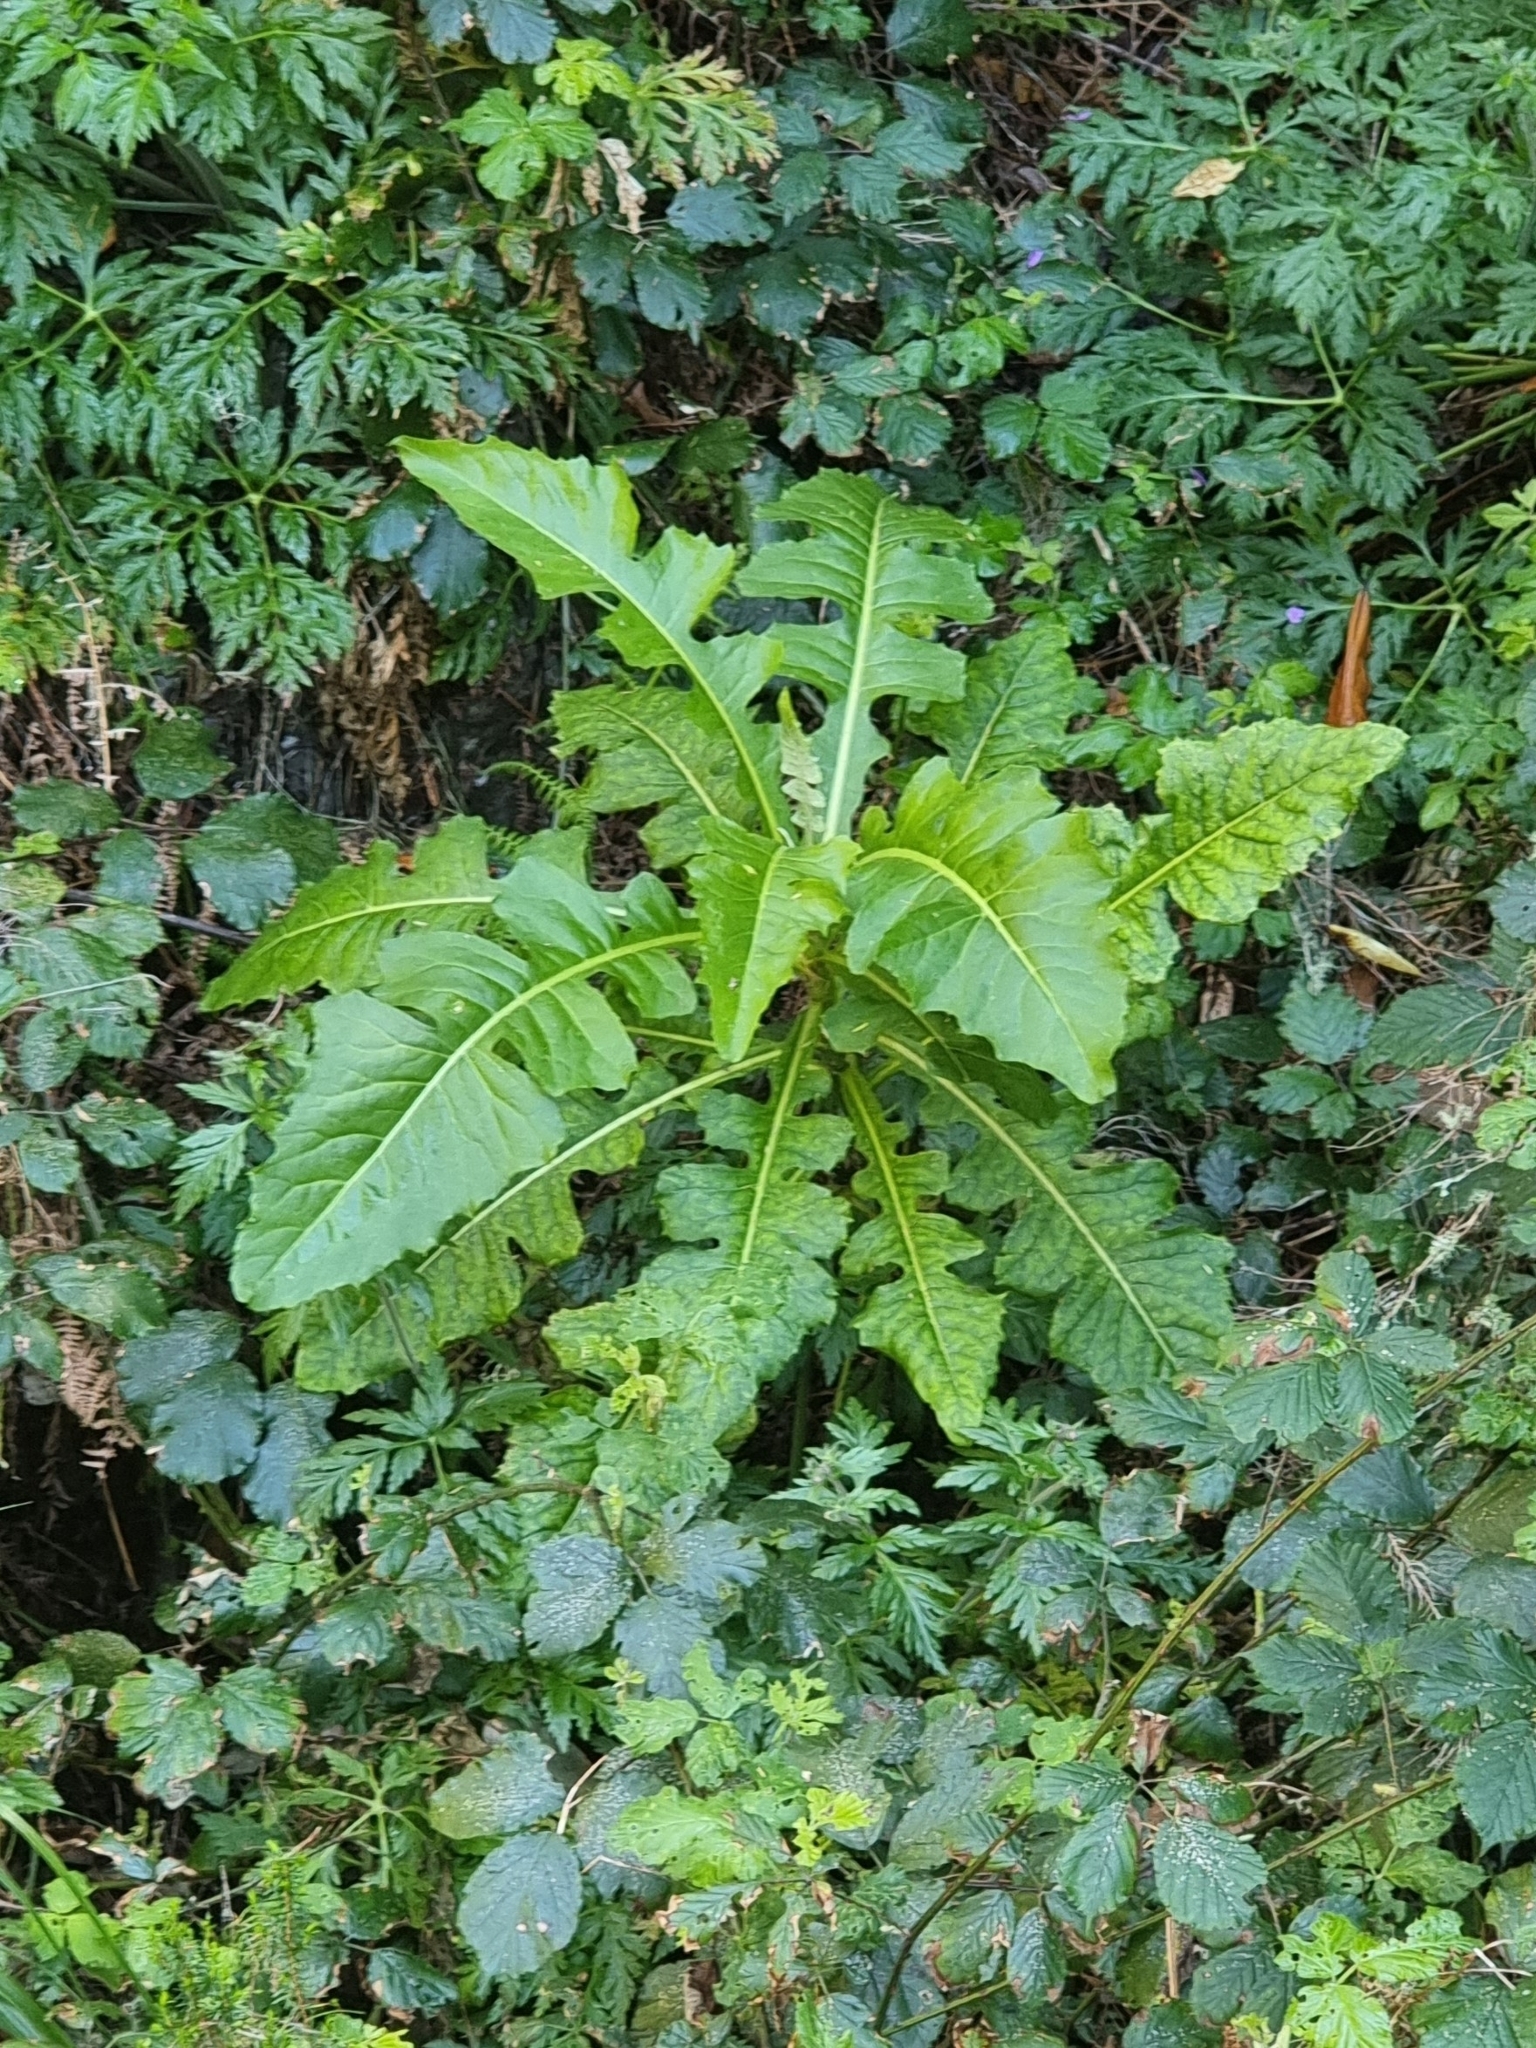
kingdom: Plantae
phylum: Tracheophyta
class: Magnoliopsida
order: Asterales
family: Asteraceae
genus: Sonchus
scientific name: Sonchus fruticosus
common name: Shrubby sow-thistle
